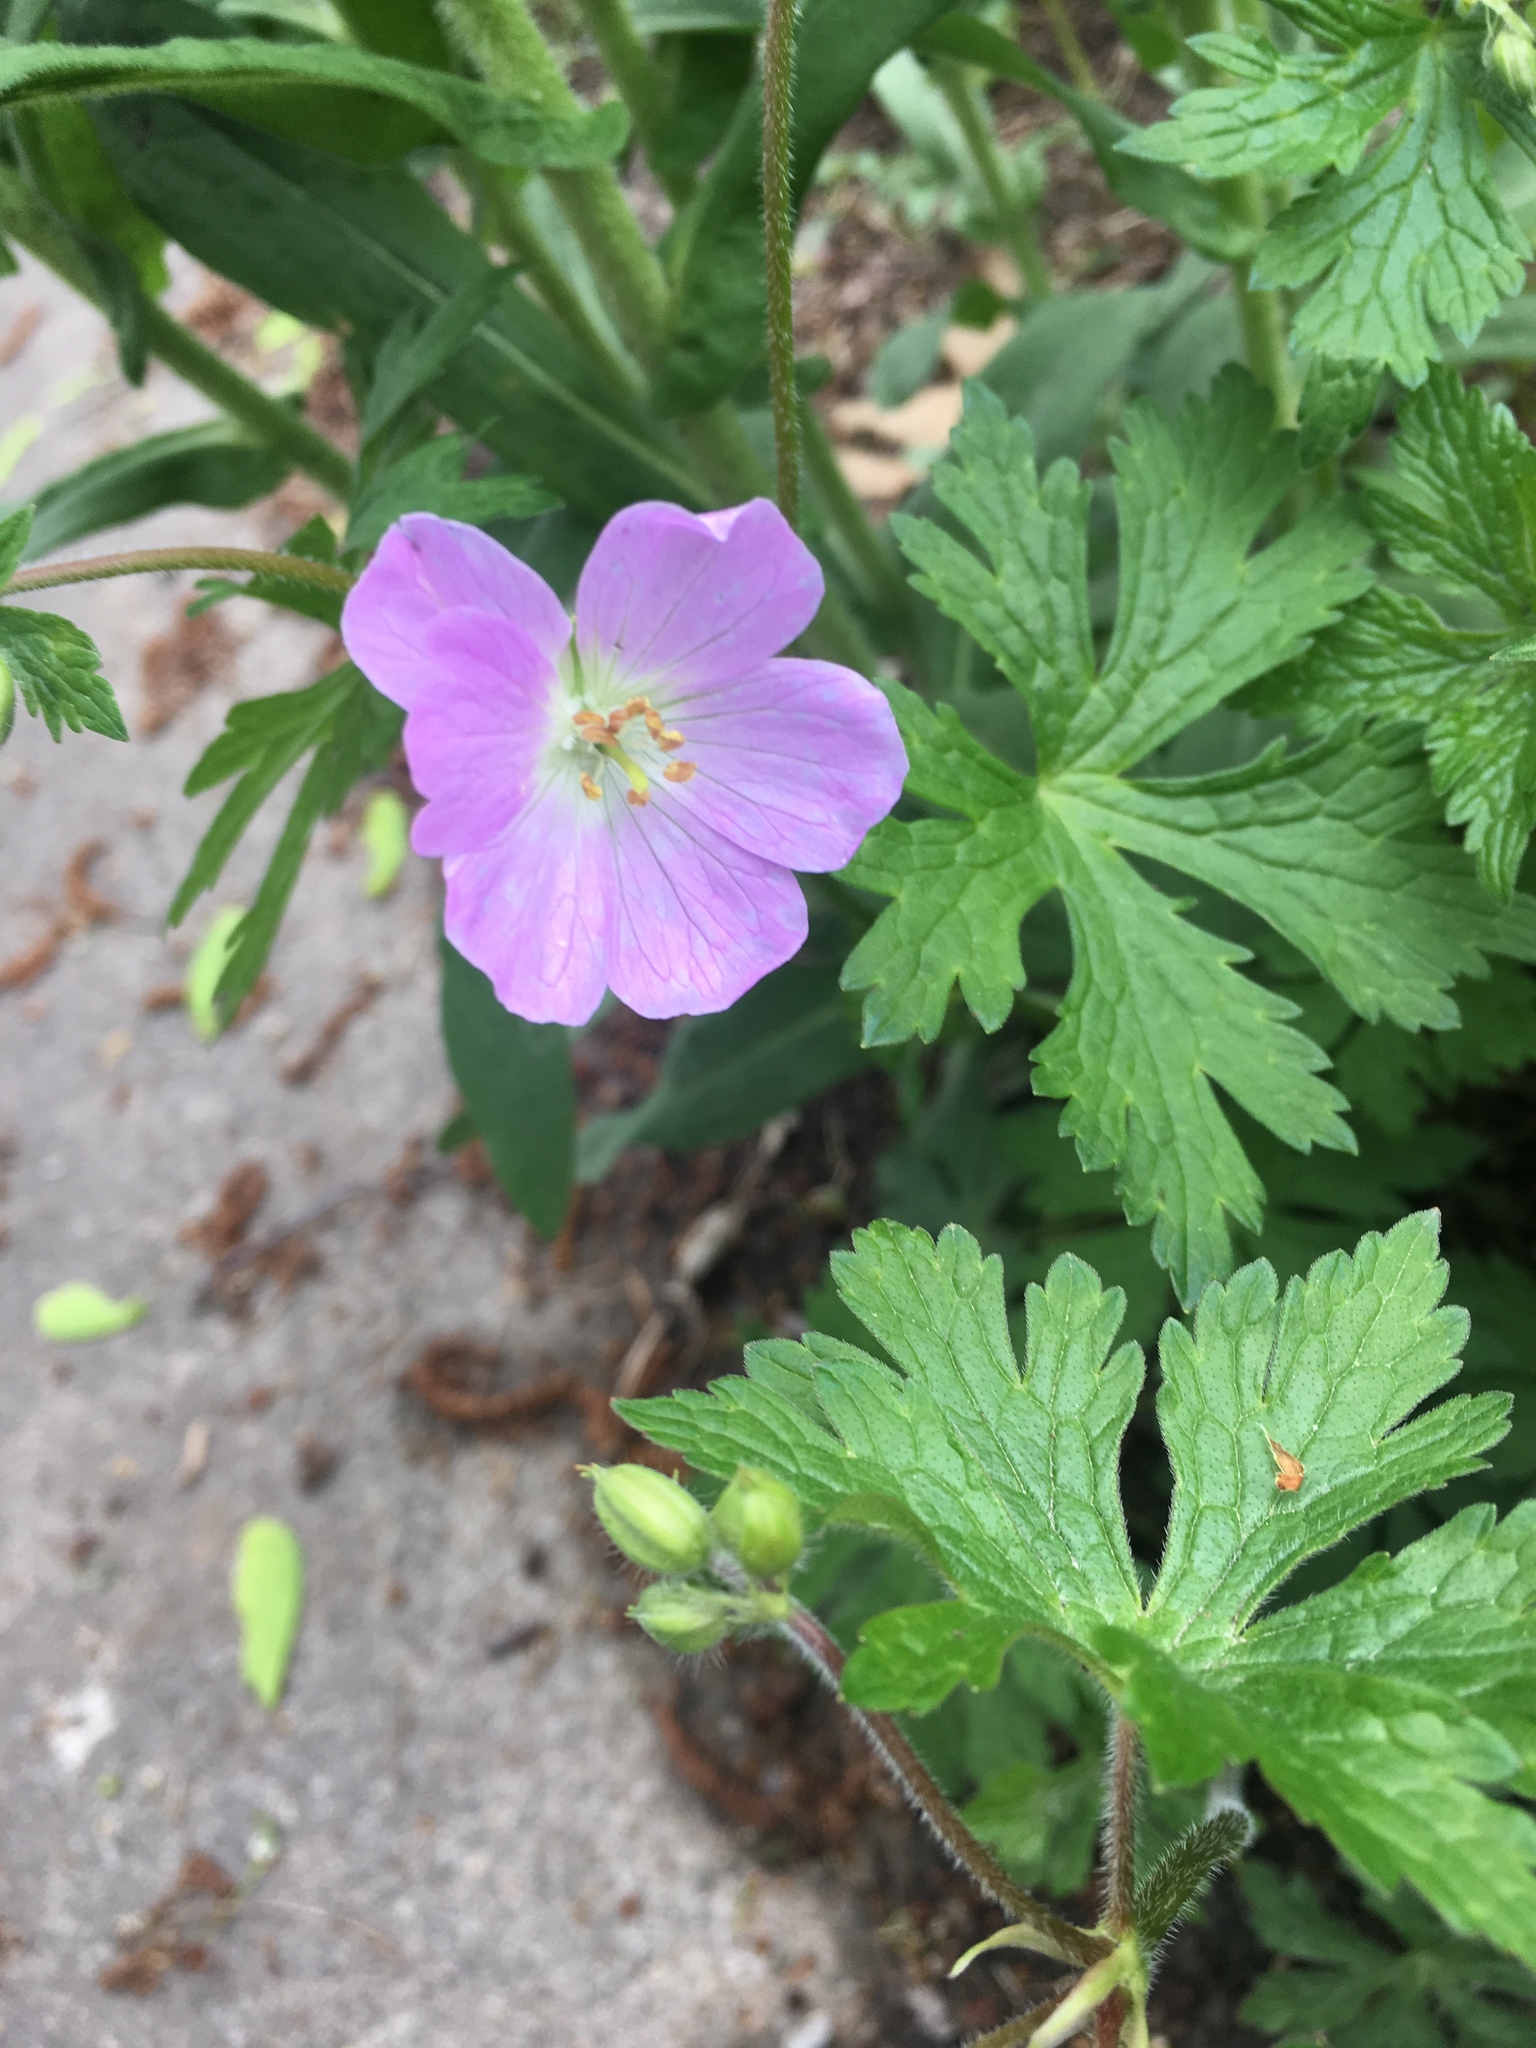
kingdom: Plantae
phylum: Tracheophyta
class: Magnoliopsida
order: Geraniales
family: Geraniaceae
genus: Geranium
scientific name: Geranium maculatum
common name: Spotted geranium
